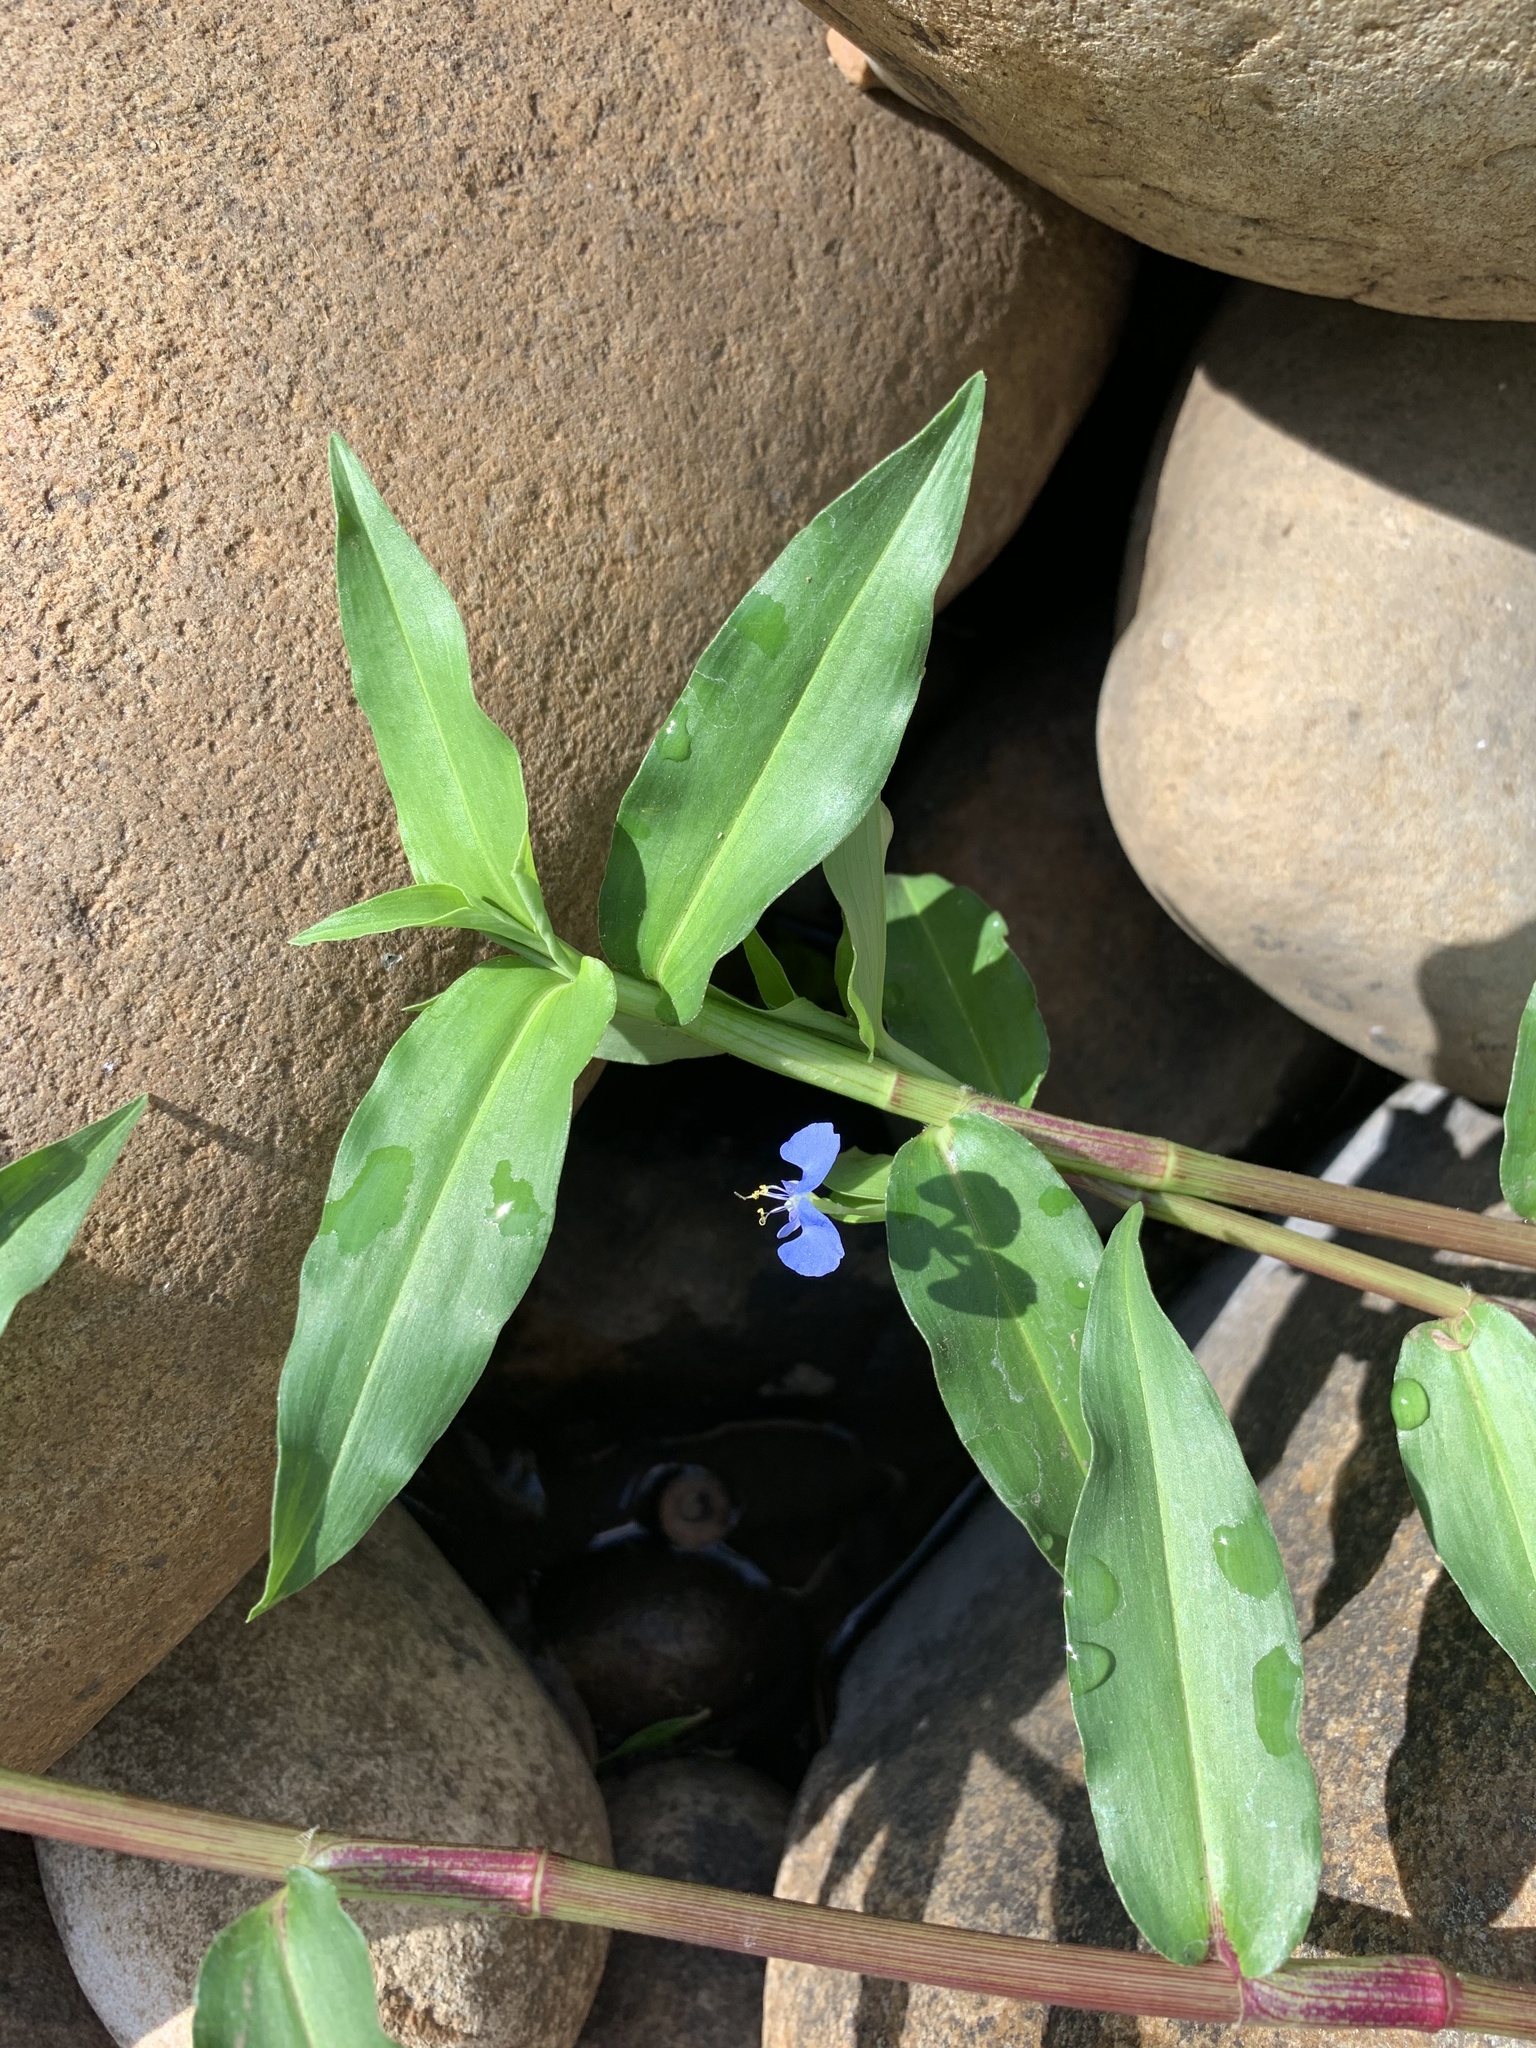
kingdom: Plantae
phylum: Tracheophyta
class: Liliopsida
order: Commelinales
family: Commelinaceae
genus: Commelina
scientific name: Commelina diffusa
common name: Climbing dayflower
